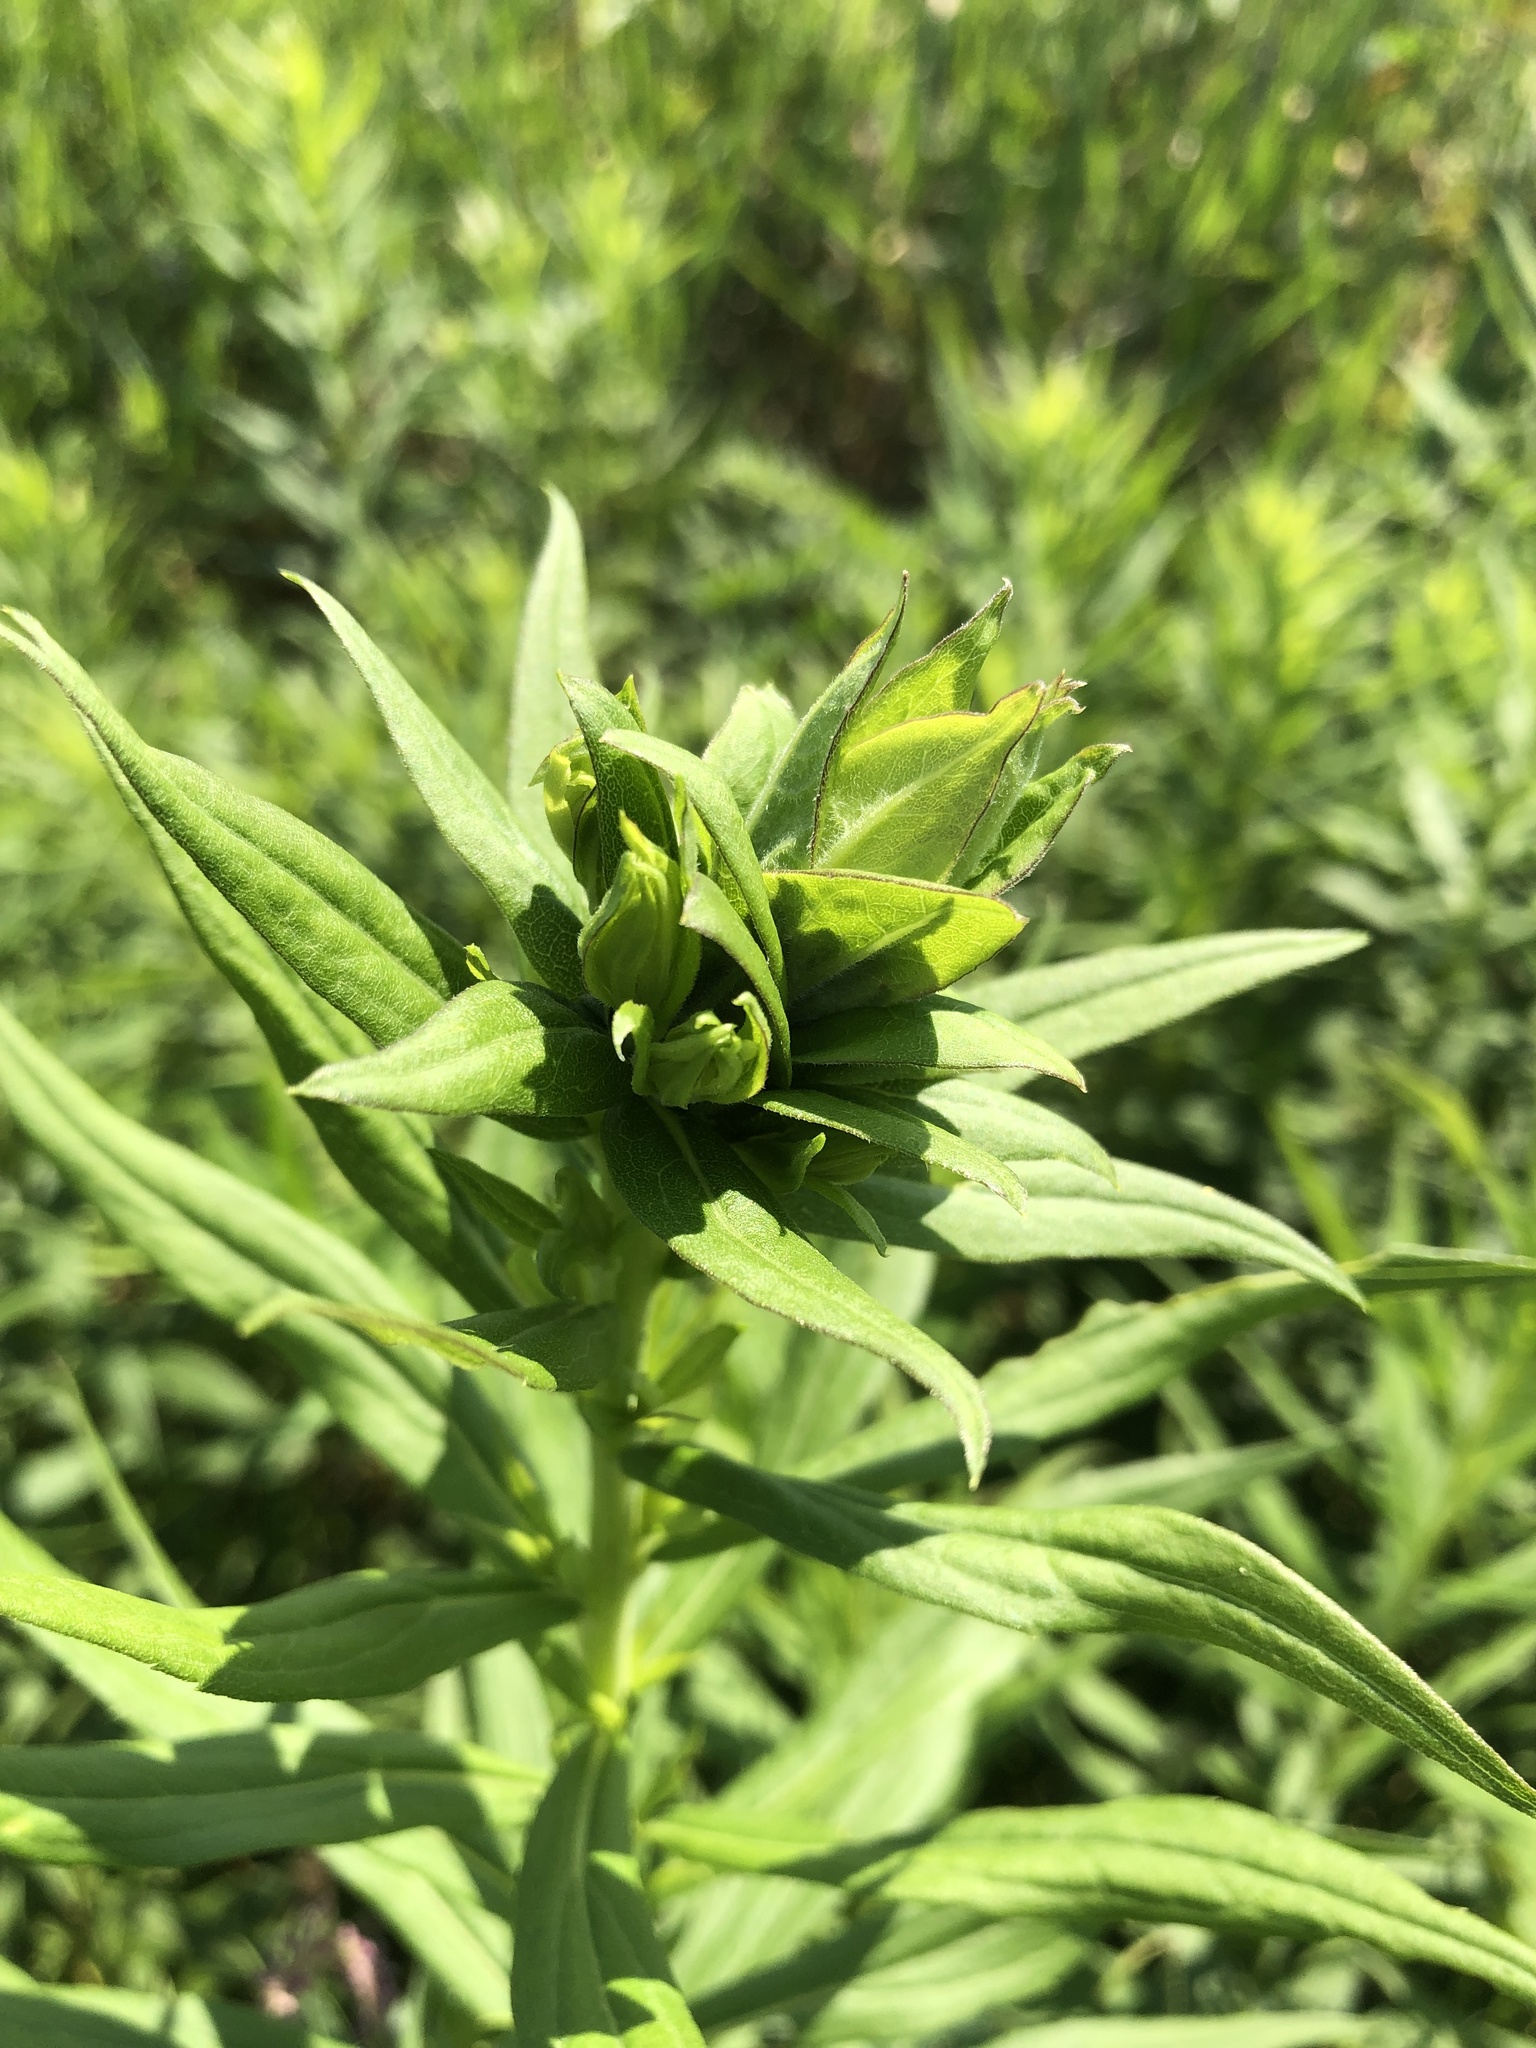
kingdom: Animalia
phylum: Arthropoda
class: Insecta
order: Diptera
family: Cecidomyiidae
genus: Rhopalomyia
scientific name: Rhopalomyia solidaginis
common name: Goldenrod bunch gall midge
